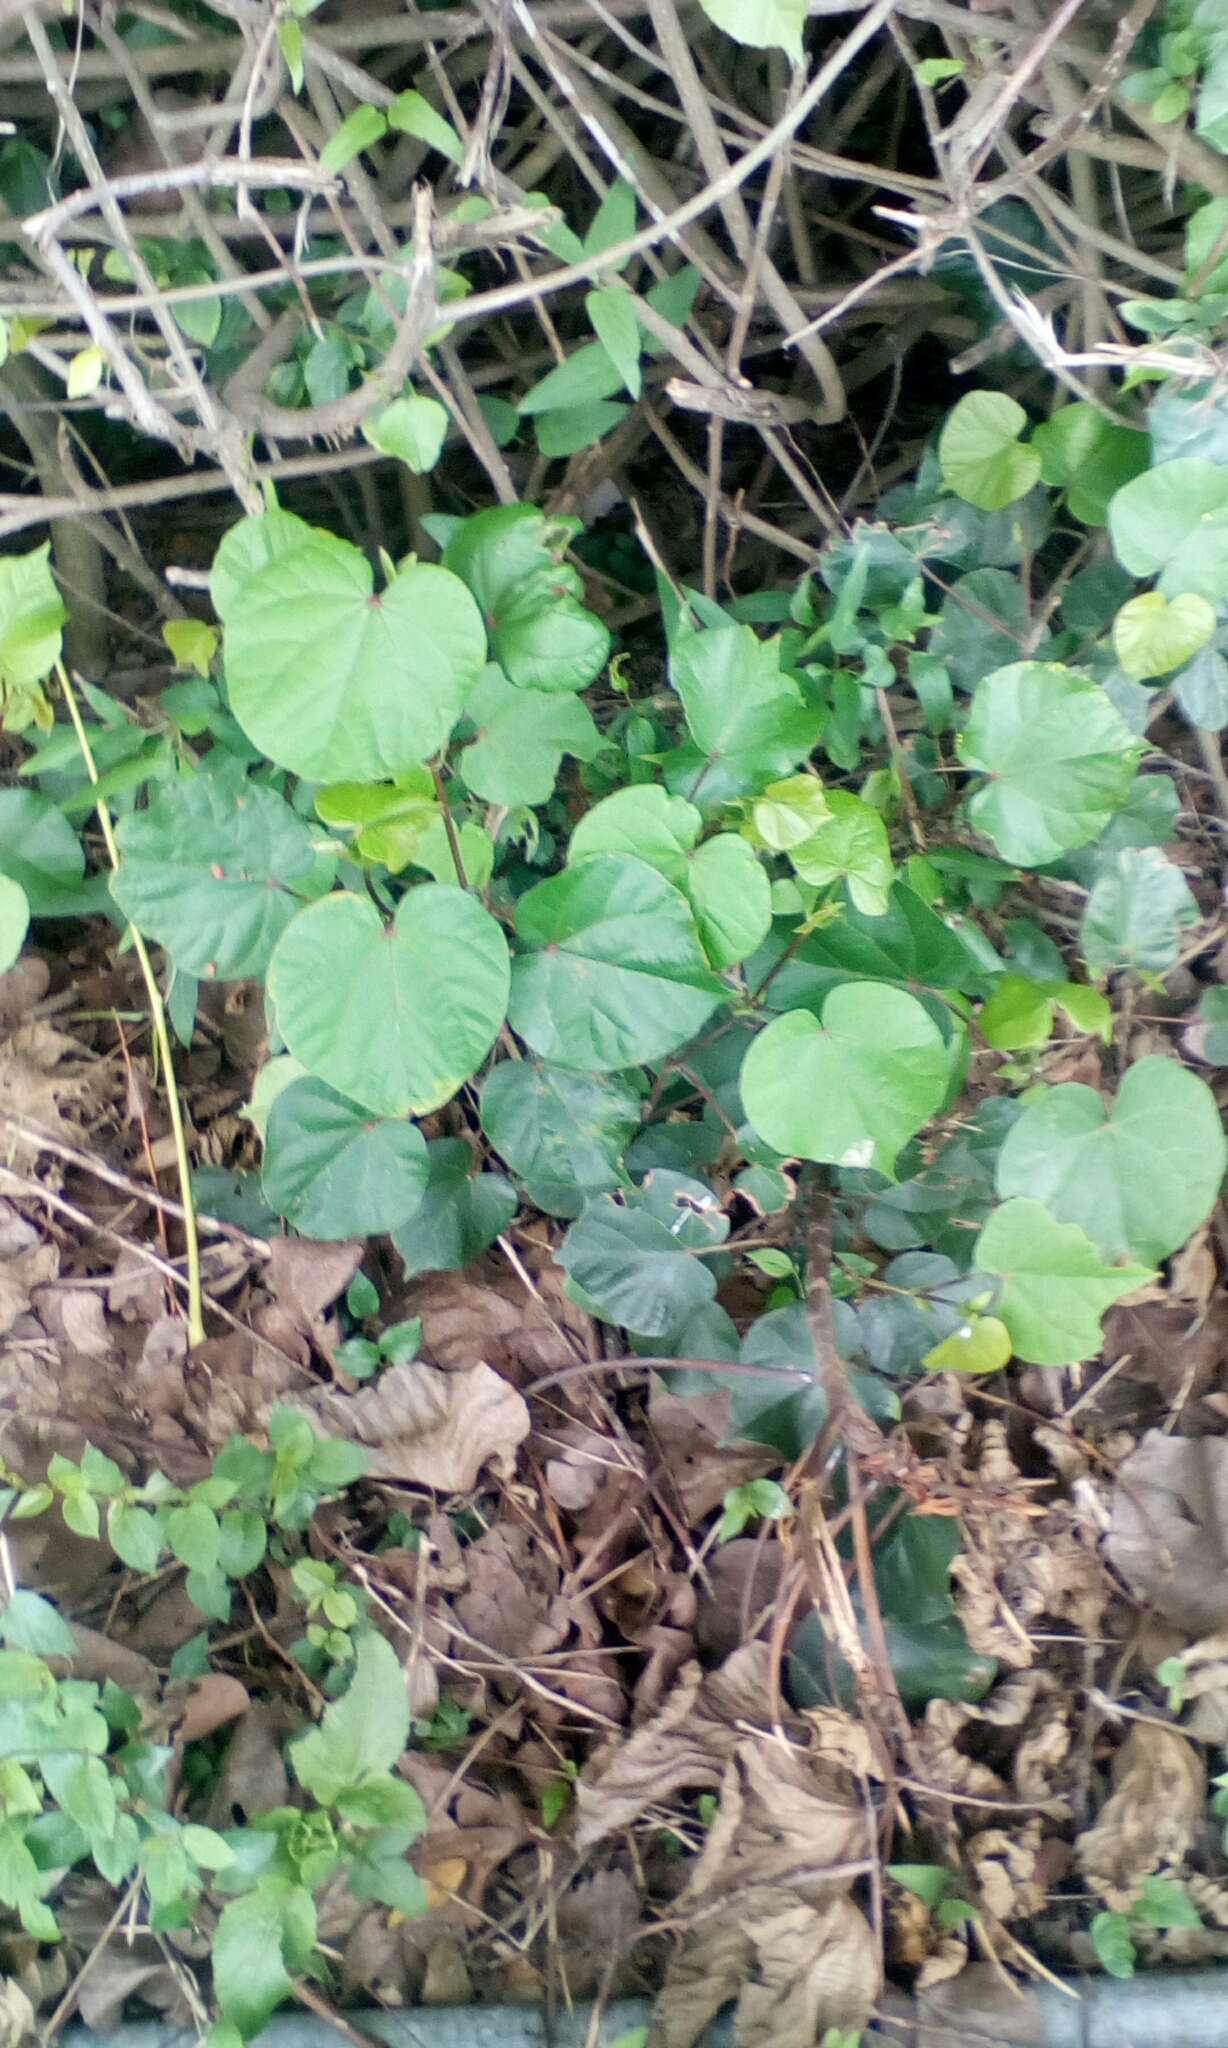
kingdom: Plantae
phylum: Tracheophyta
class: Magnoliopsida
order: Malvales
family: Malvaceae
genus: Talipariti
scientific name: Talipariti tiliaceum
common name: Sea hibiscus
